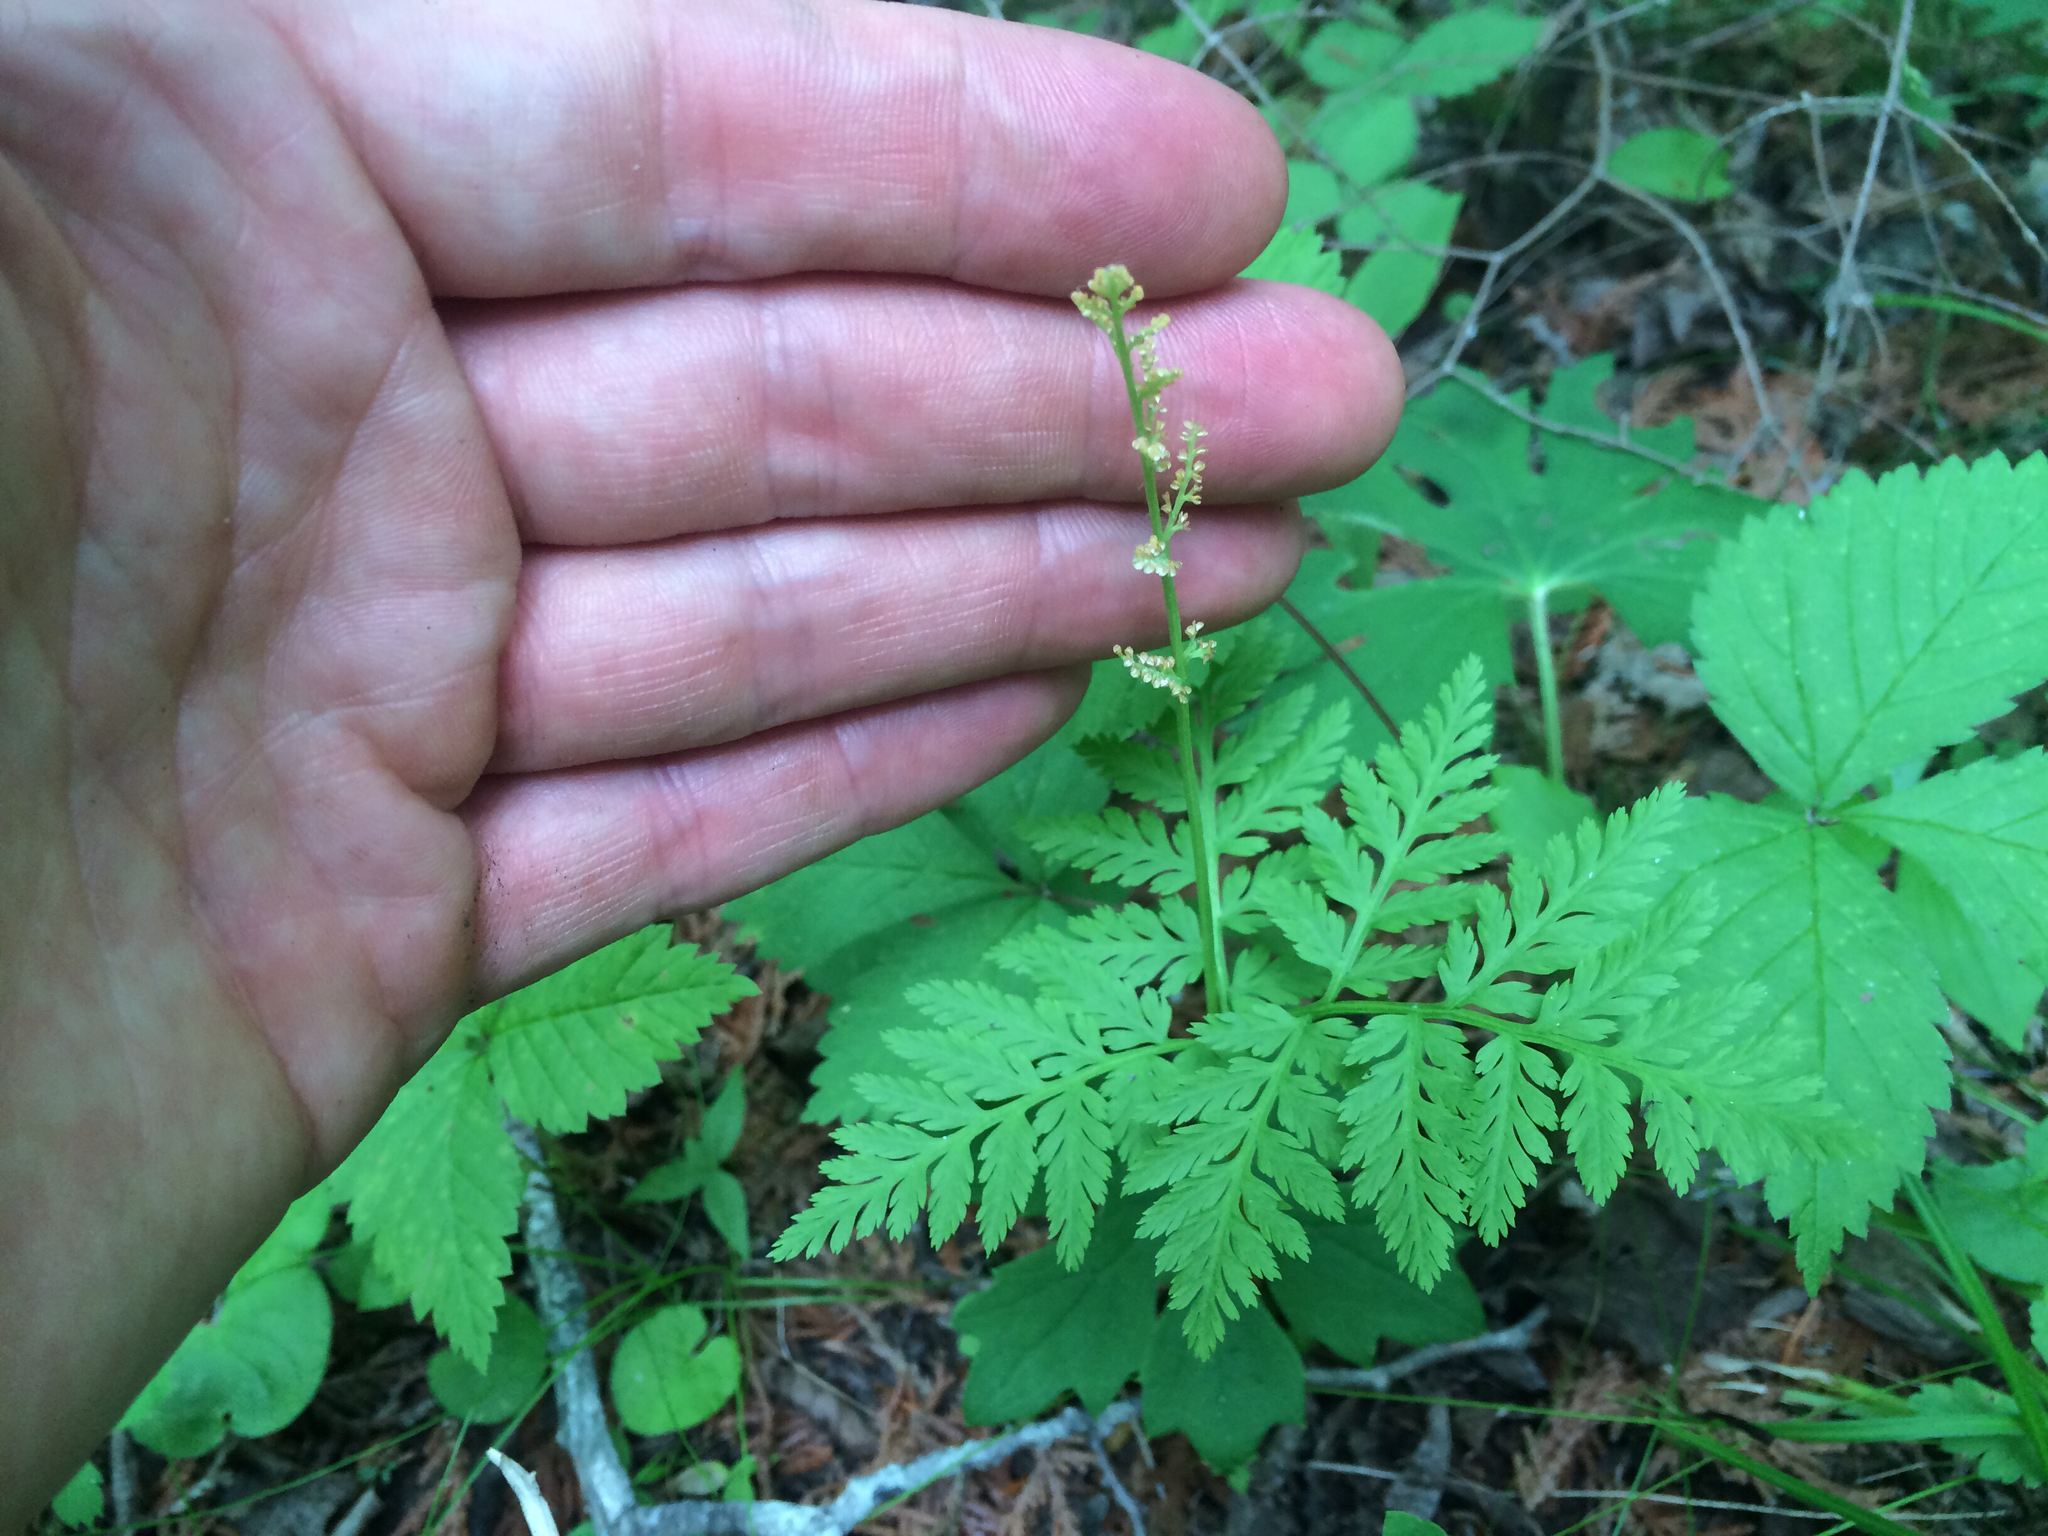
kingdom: Plantae
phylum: Tracheophyta
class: Polypodiopsida
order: Ophioglossales
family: Ophioglossaceae
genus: Botrypus
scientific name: Botrypus virginianus
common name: Common grapefern
